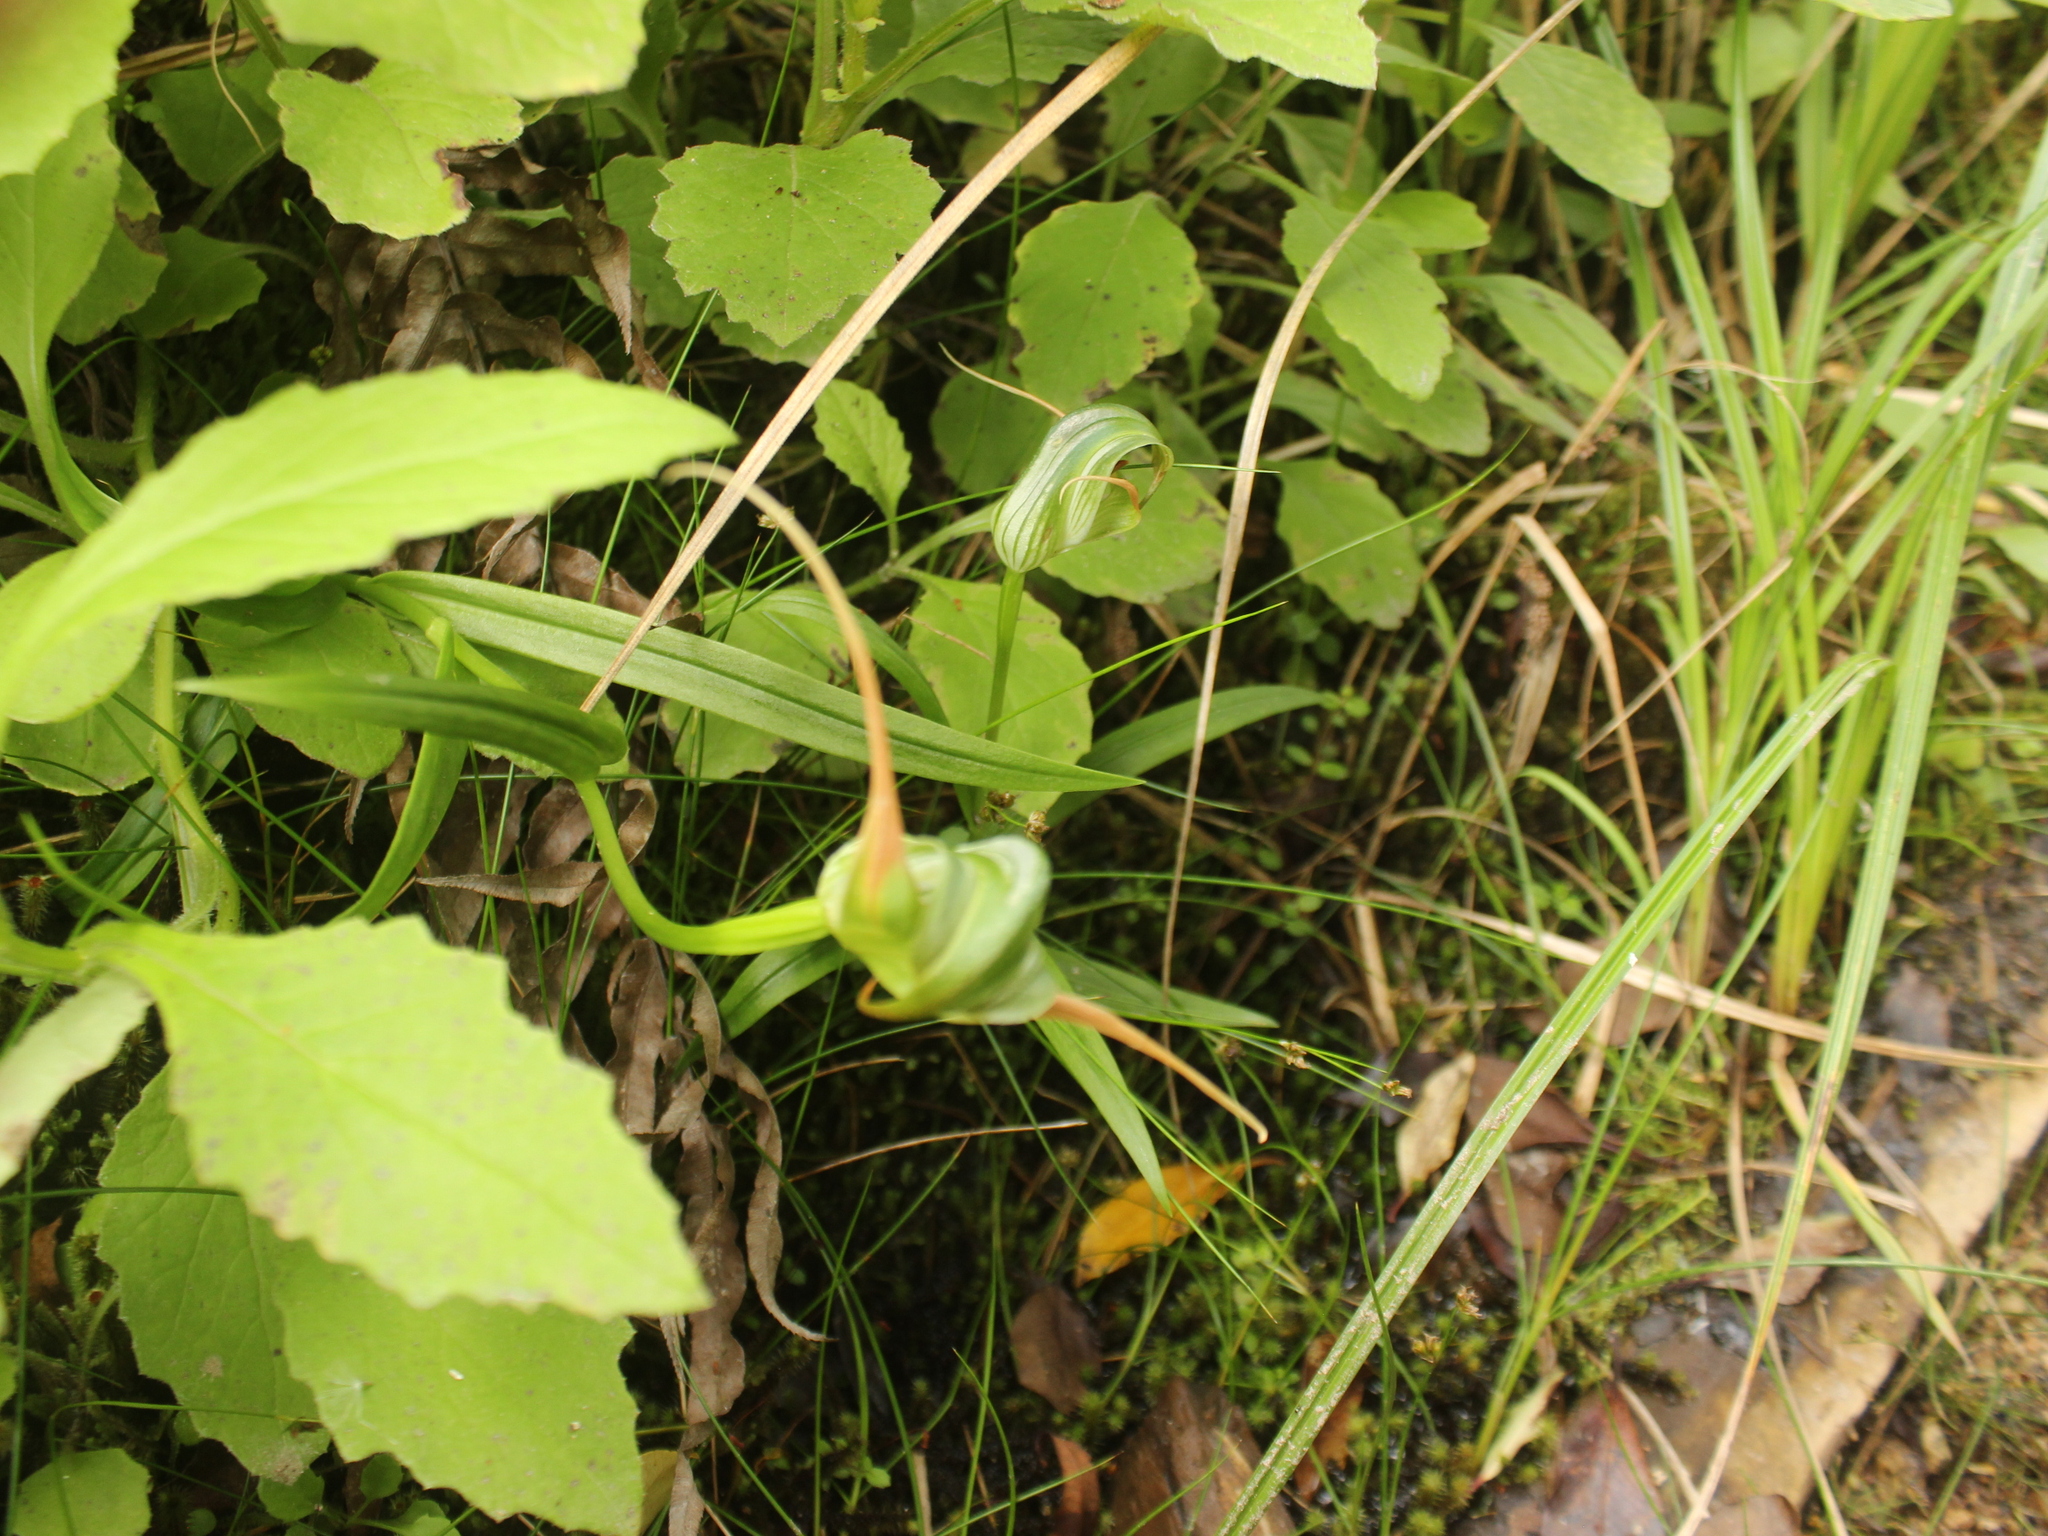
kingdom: Plantae
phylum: Tracheophyta
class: Liliopsida
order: Asparagales
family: Orchidaceae
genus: Pterostylis
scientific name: Pterostylis patens
